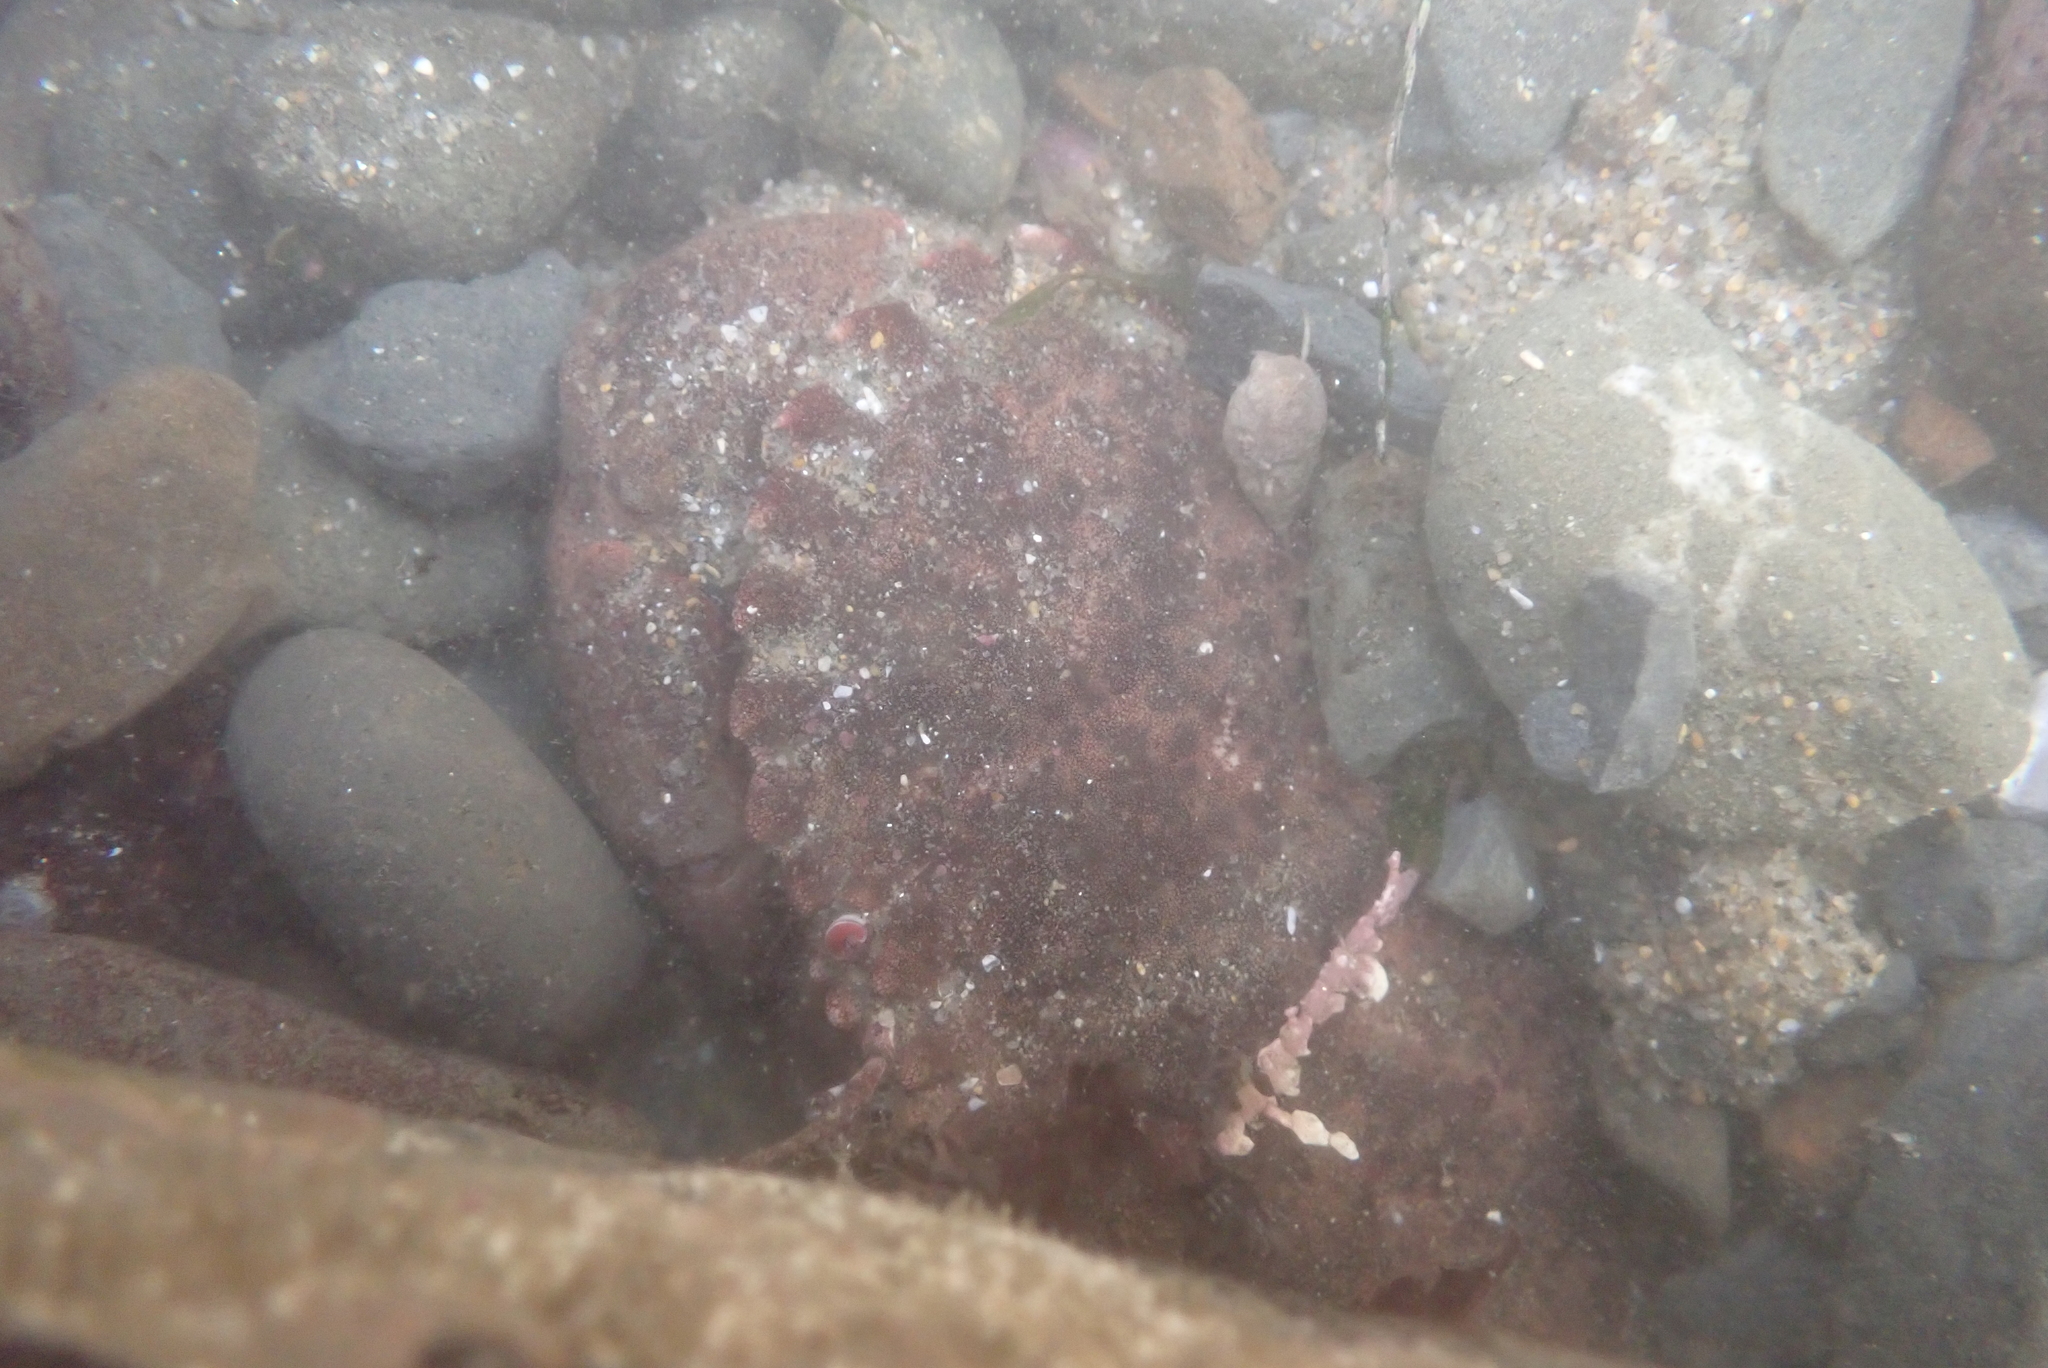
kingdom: Animalia
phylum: Arthropoda
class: Malacostraca
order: Decapoda
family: Cancridae
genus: Romaleon
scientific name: Romaleon antennarium
